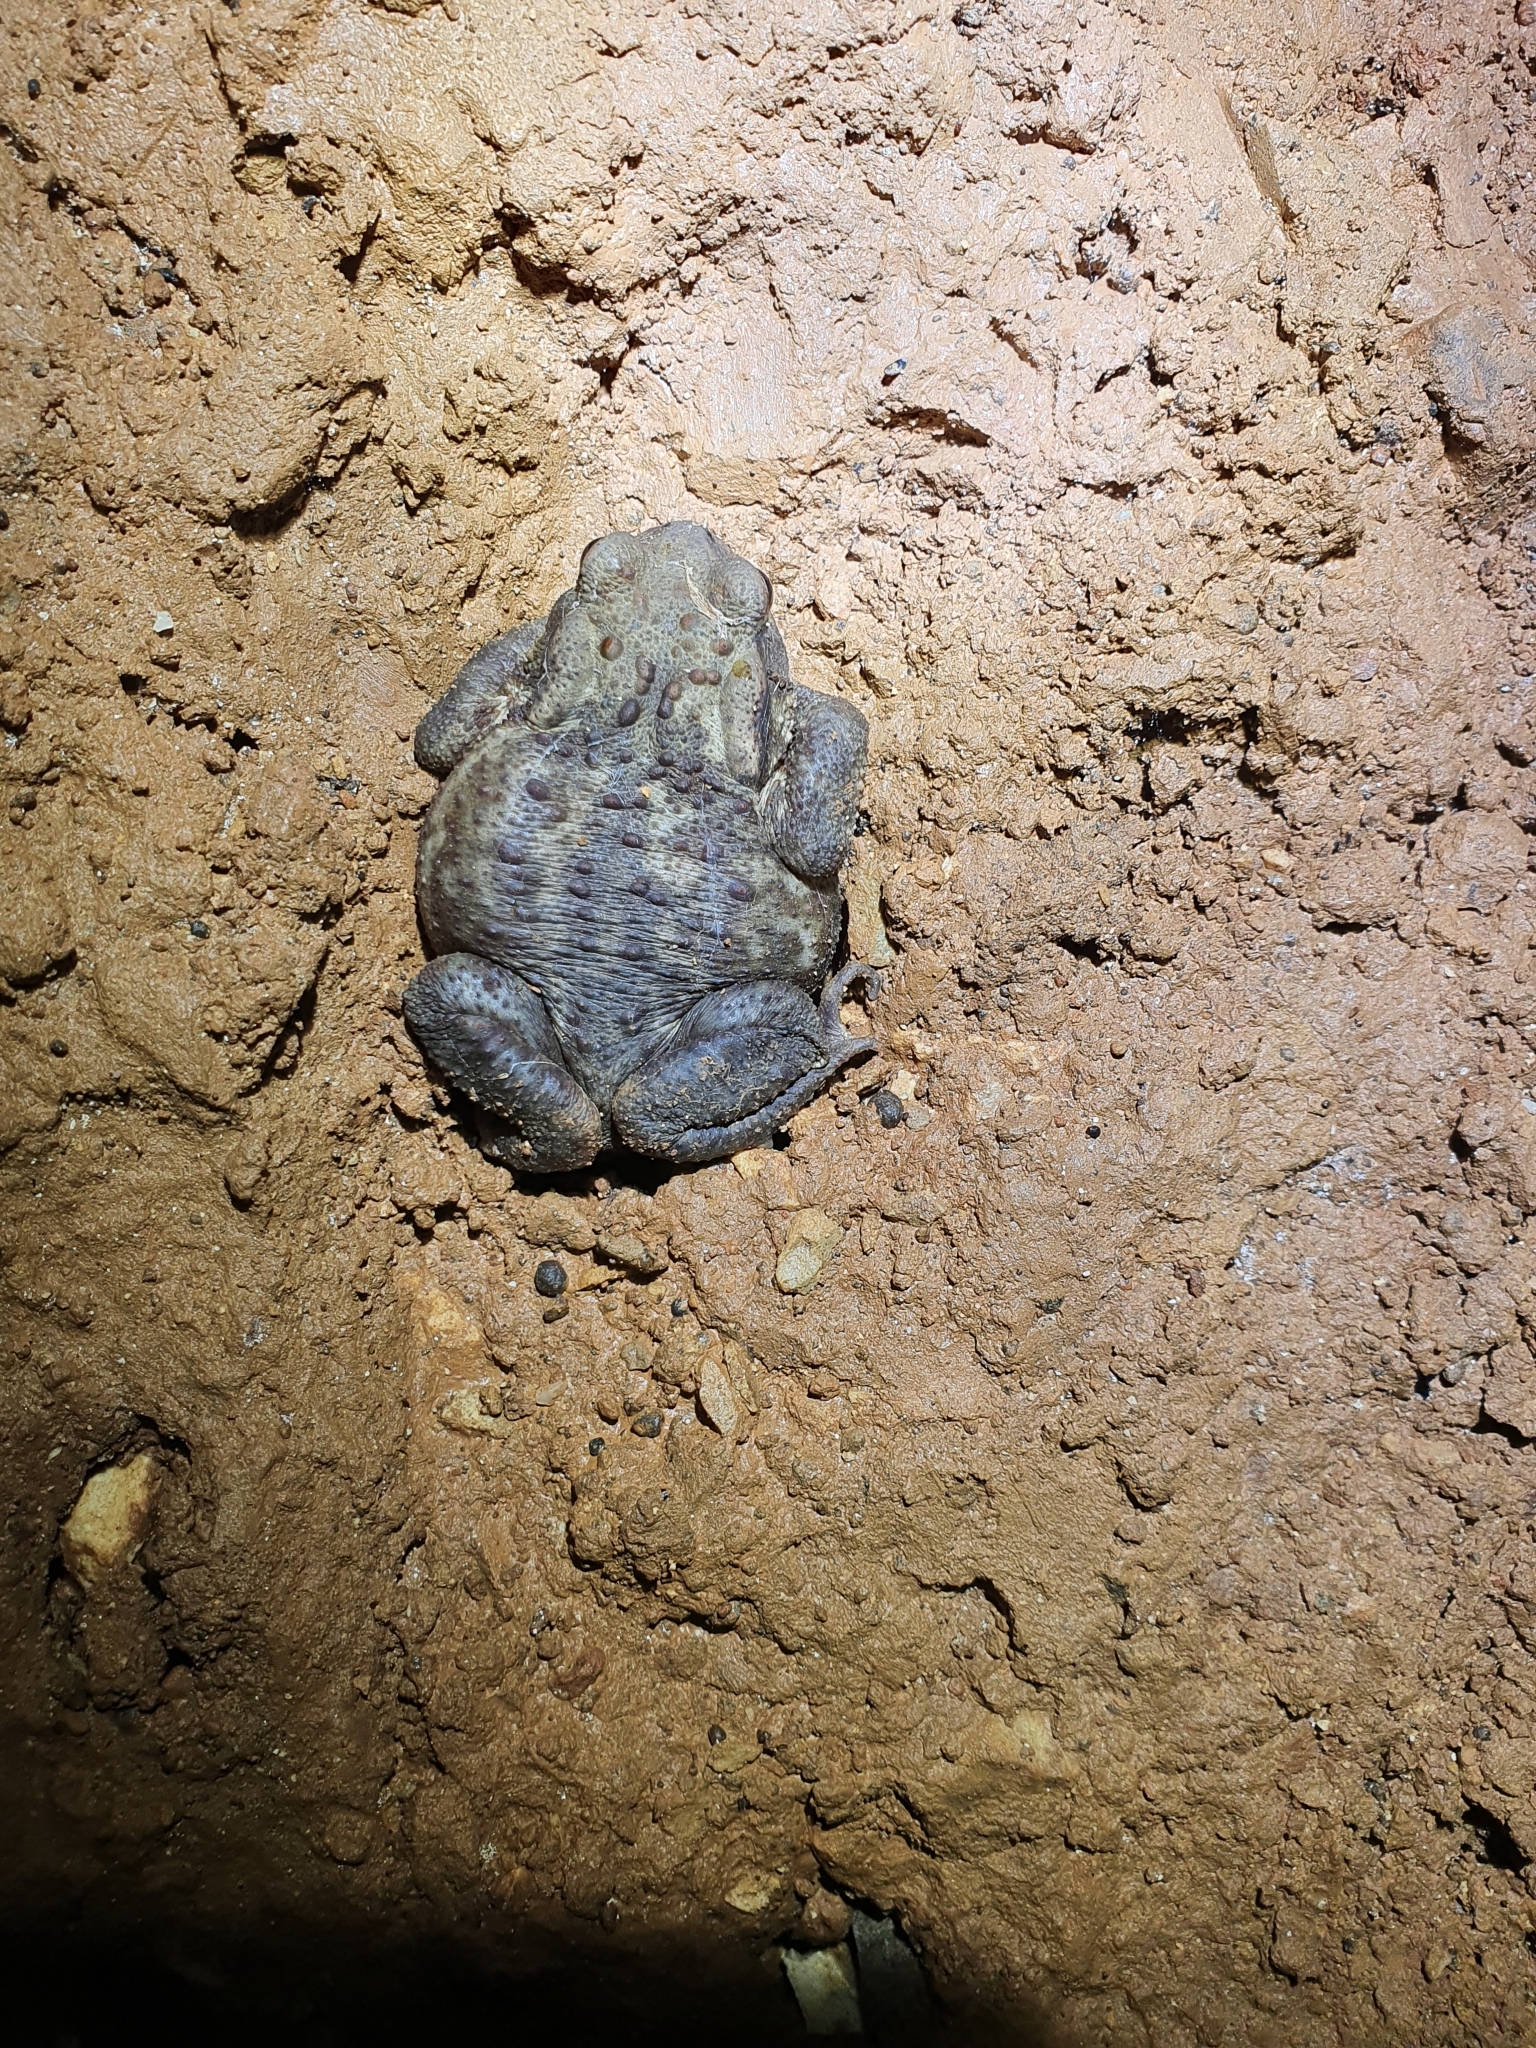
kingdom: Animalia
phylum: Chordata
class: Amphibia
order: Anura
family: Bufonidae
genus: Bufo
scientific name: Bufo bufo
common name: Common toad
